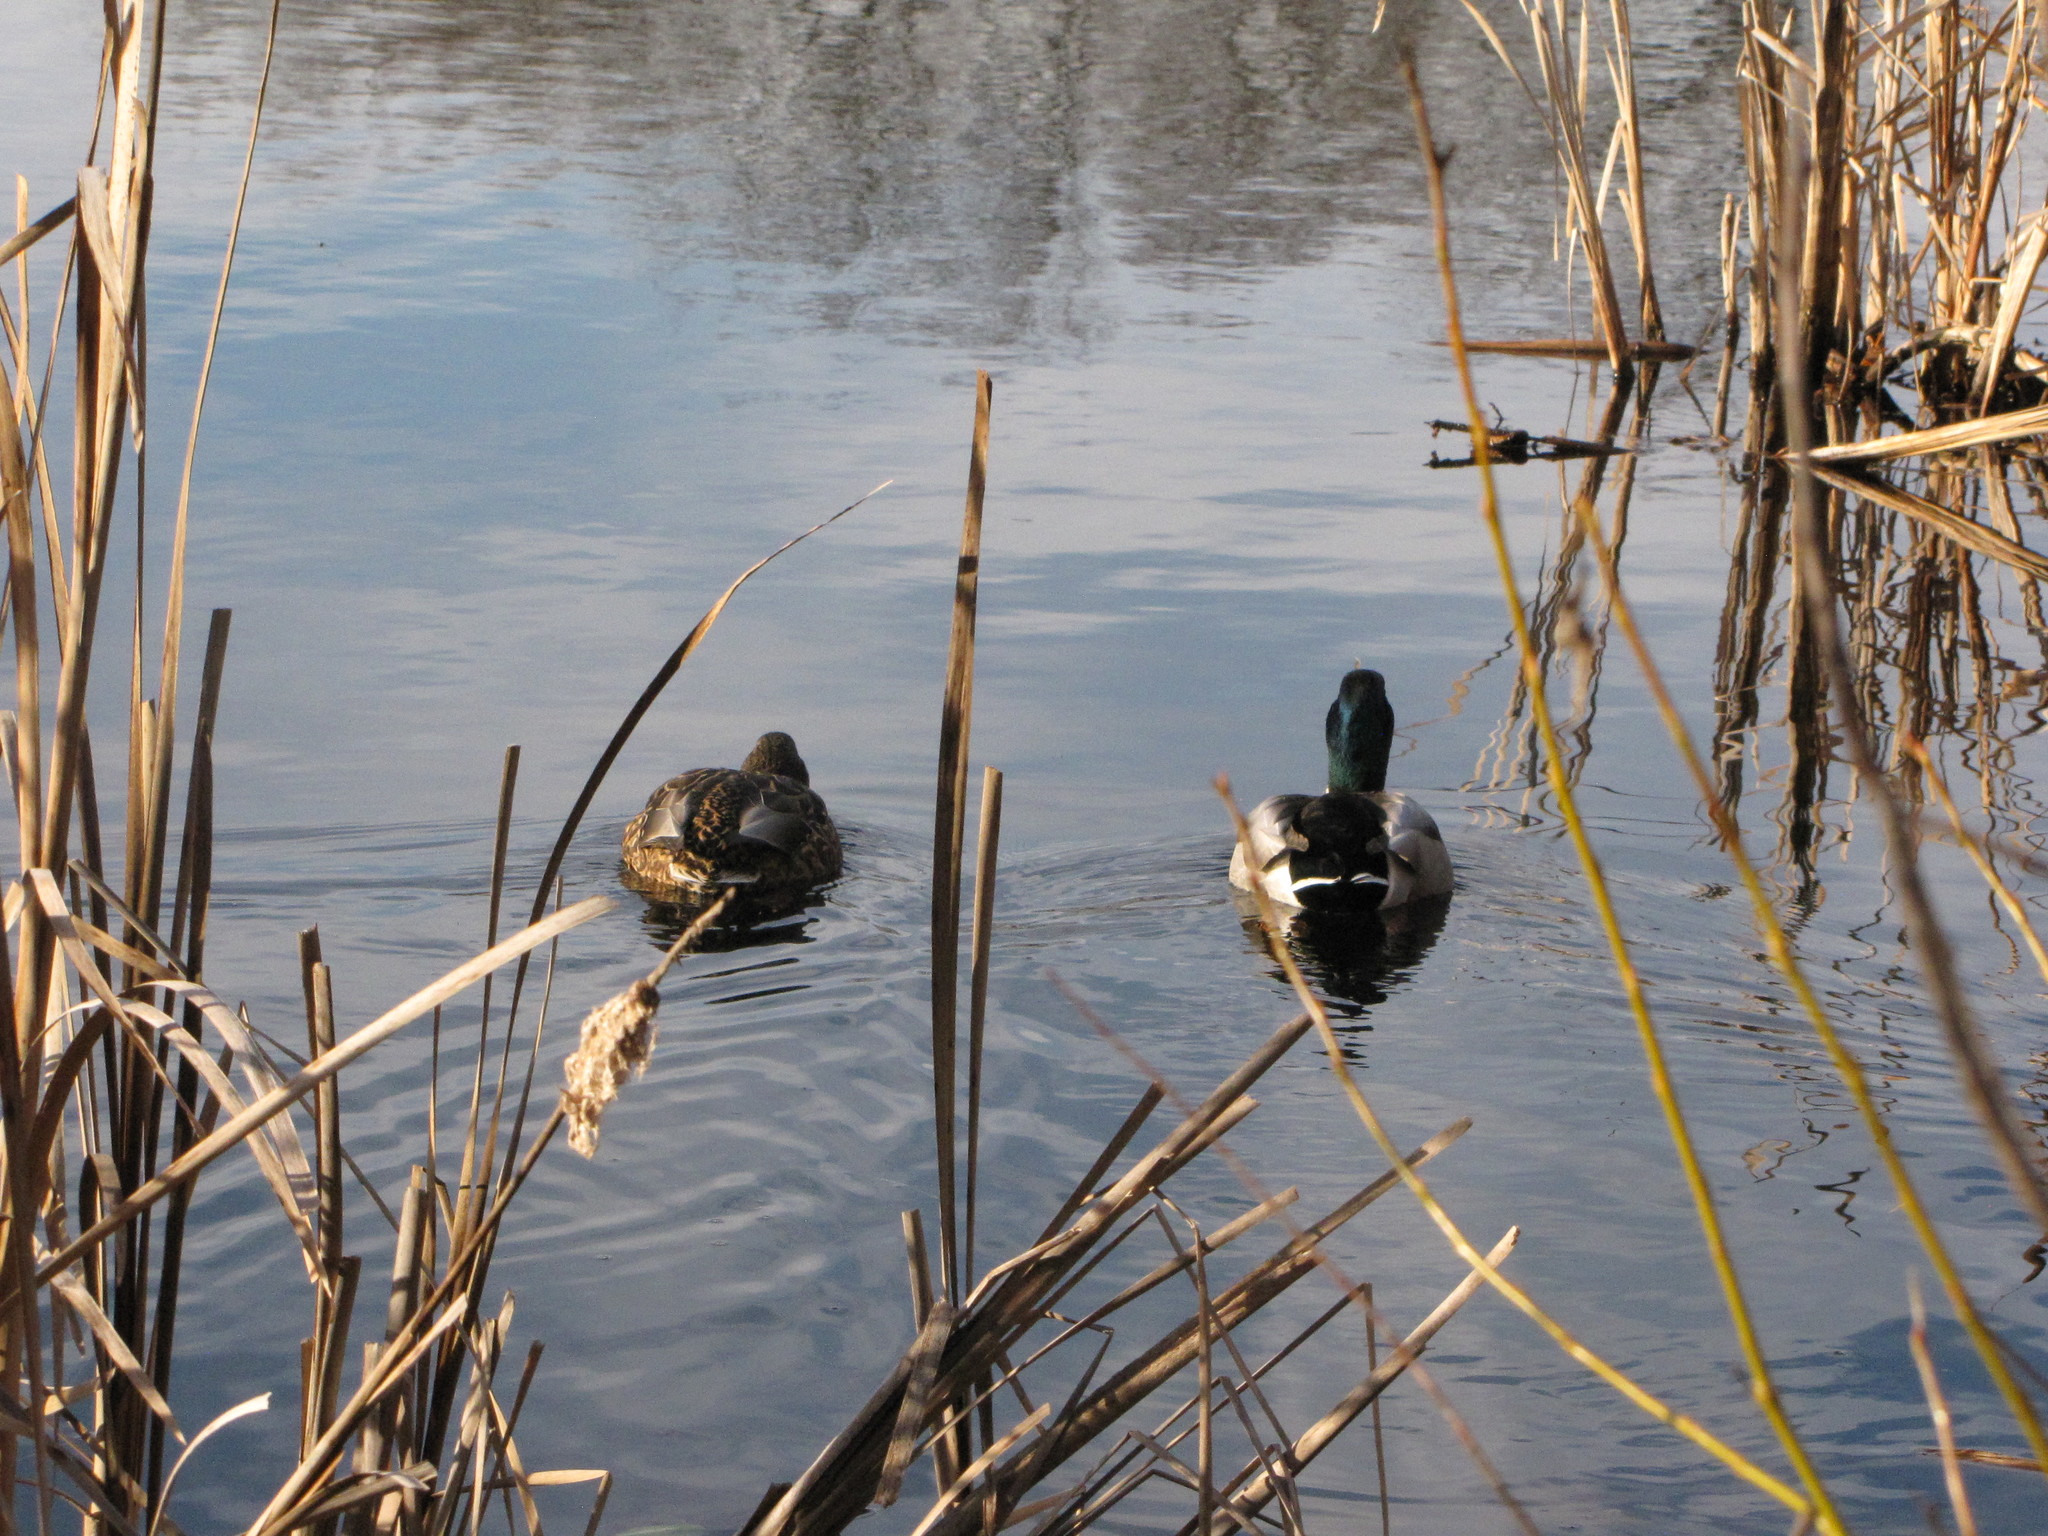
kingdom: Animalia
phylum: Chordata
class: Aves
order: Anseriformes
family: Anatidae
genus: Anas
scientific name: Anas platyrhynchos
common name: Mallard
